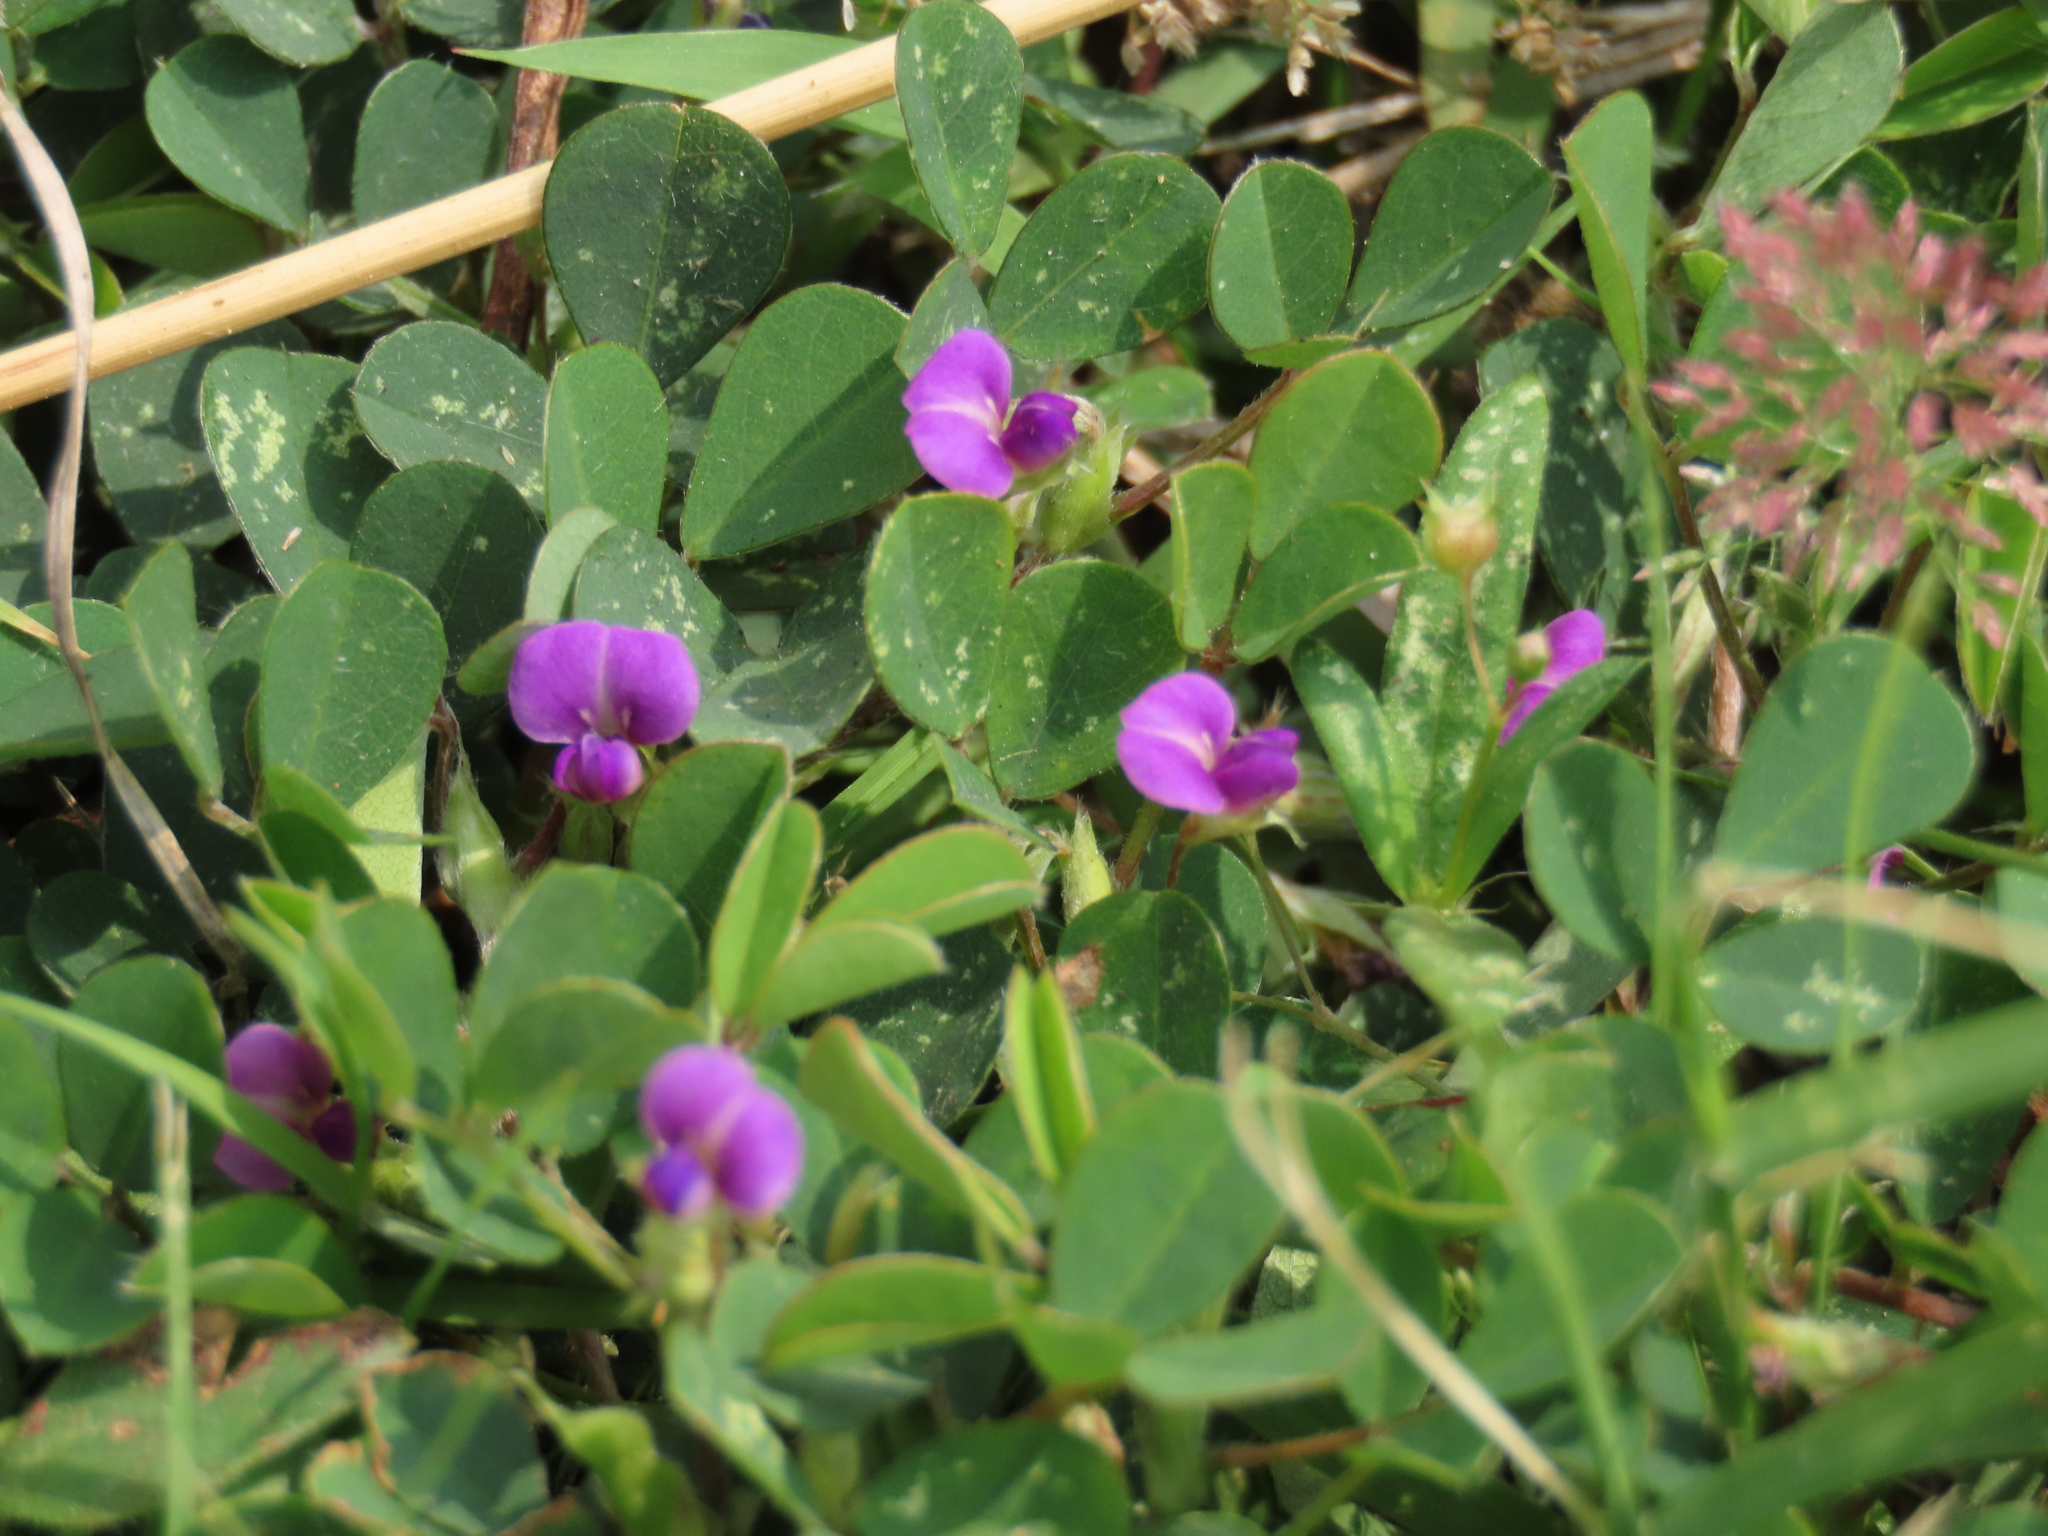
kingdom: Plantae
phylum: Tracheophyta
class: Magnoliopsida
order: Fabales
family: Fabaceae
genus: Grona
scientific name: Grona triflora
